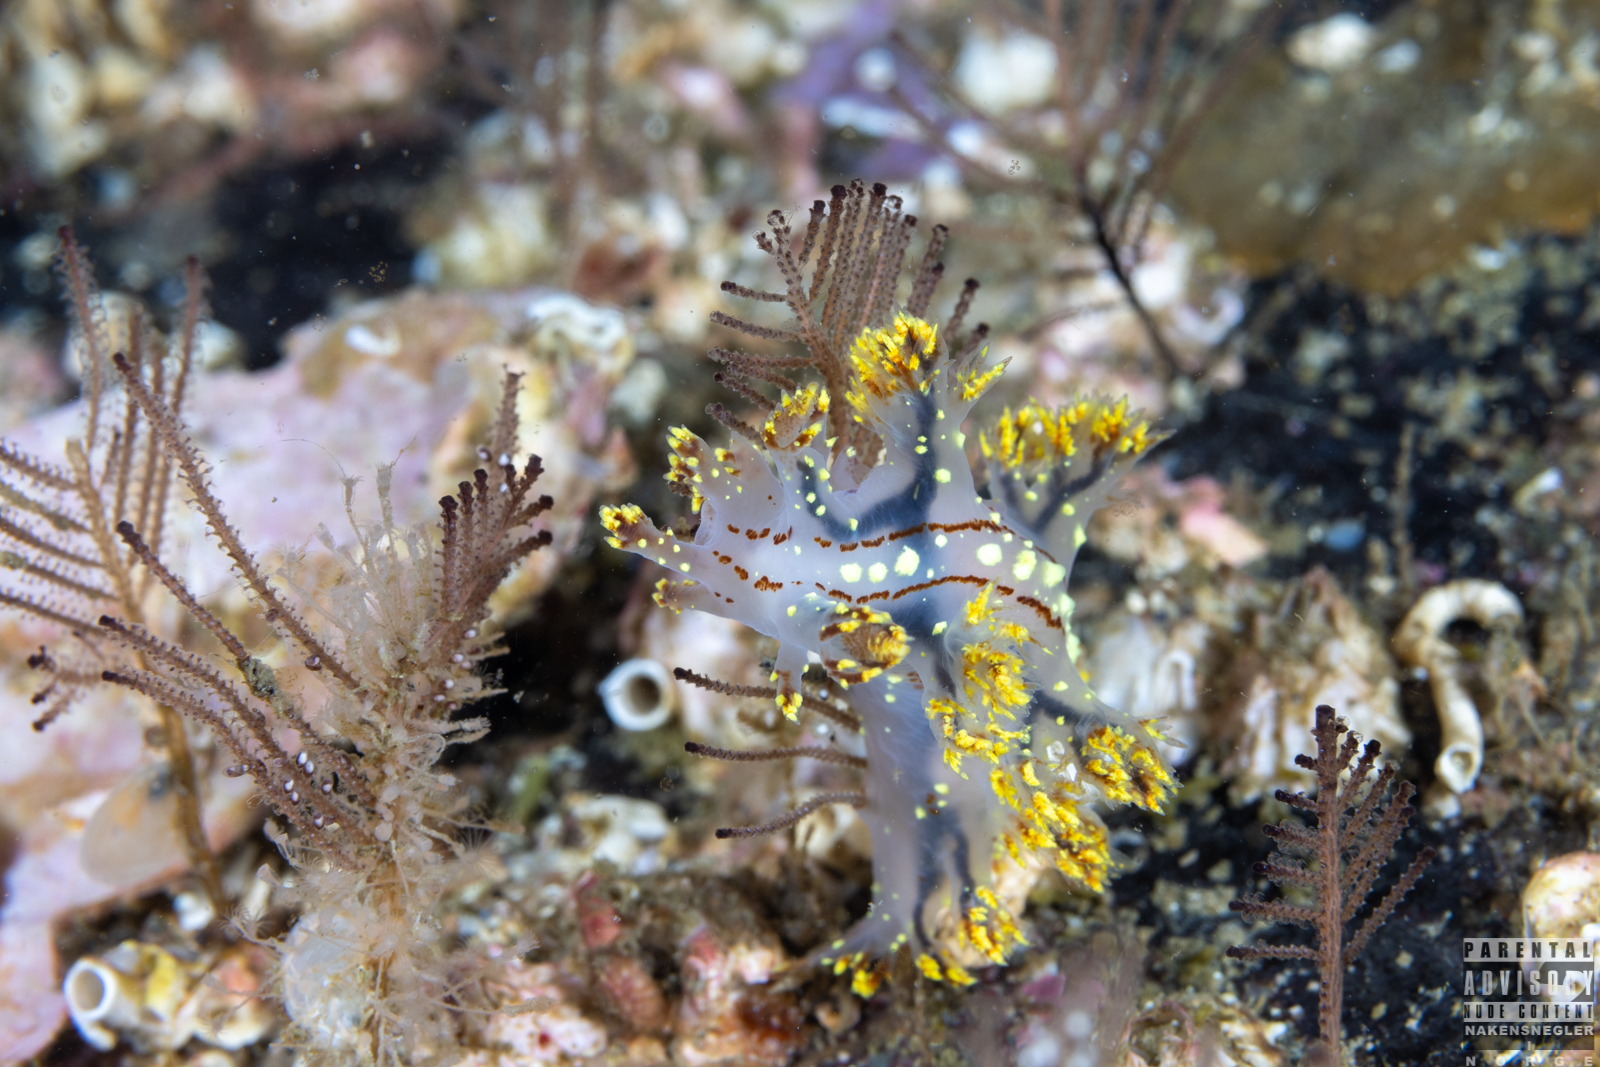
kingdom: Animalia
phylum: Mollusca
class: Gastropoda
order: Nudibranchia
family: Dendronotidae
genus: Dendronotus
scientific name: Dendronotus yrjargul
